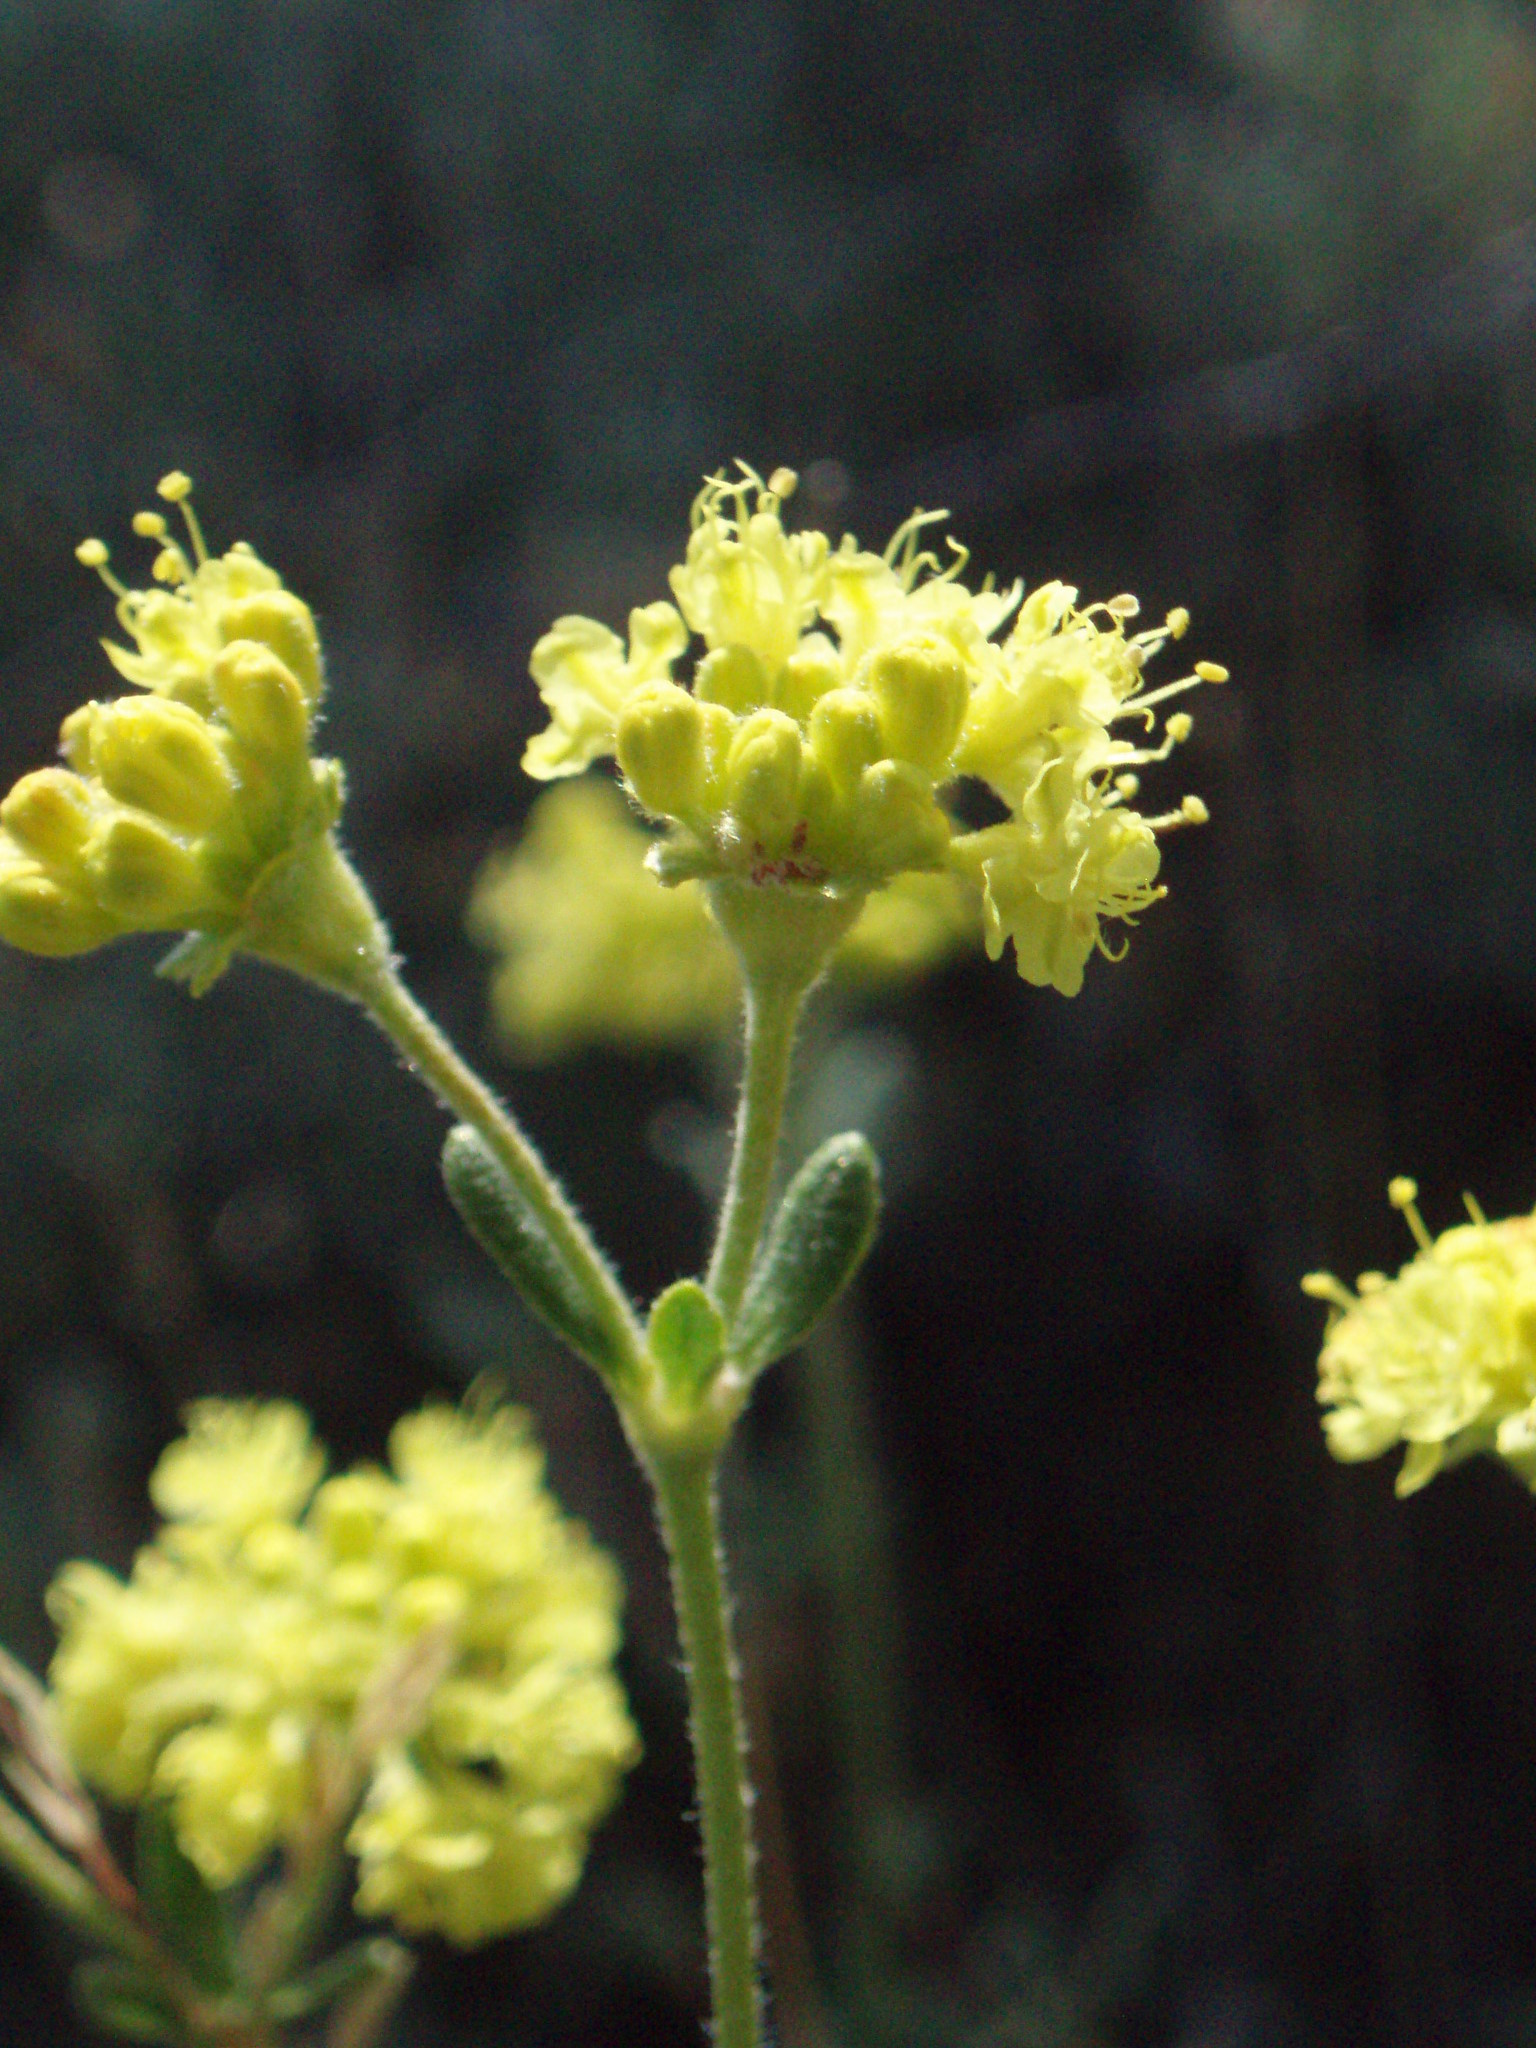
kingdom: Plantae
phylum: Tracheophyta
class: Magnoliopsida
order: Caryophyllales
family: Polygonaceae
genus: Eriogonum
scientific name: Eriogonum sphaerocephalum
